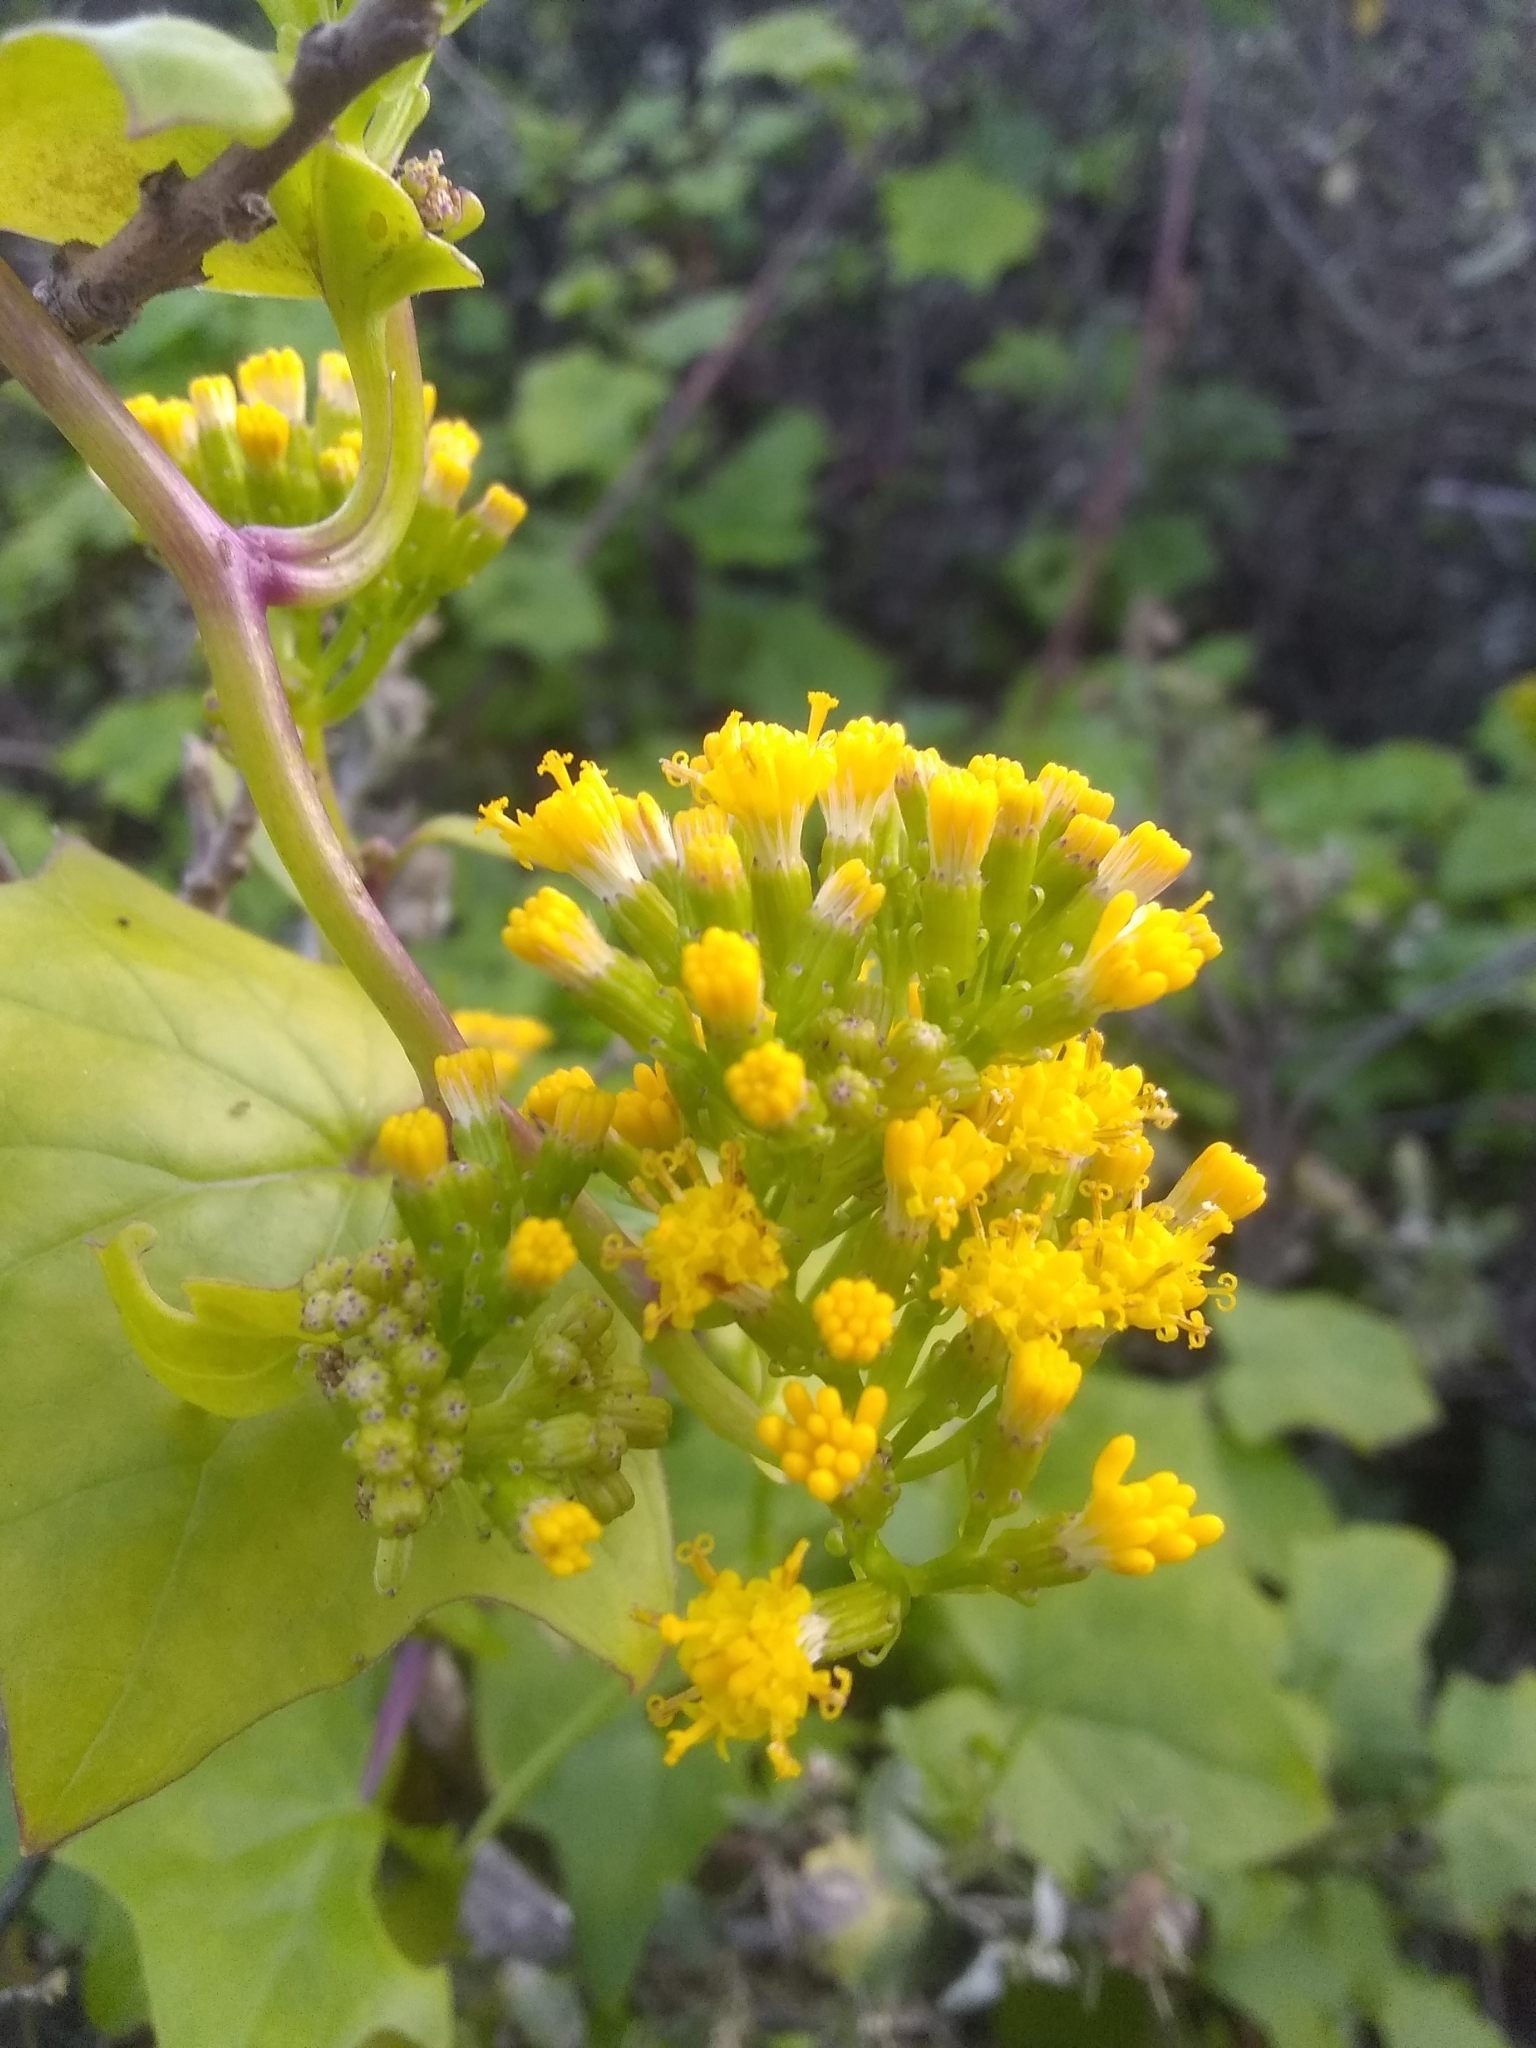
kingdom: Plantae
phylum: Tracheophyta
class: Magnoliopsida
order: Asterales
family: Asteraceae
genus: Delairea
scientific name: Delairea odorata
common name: Cape-ivy
